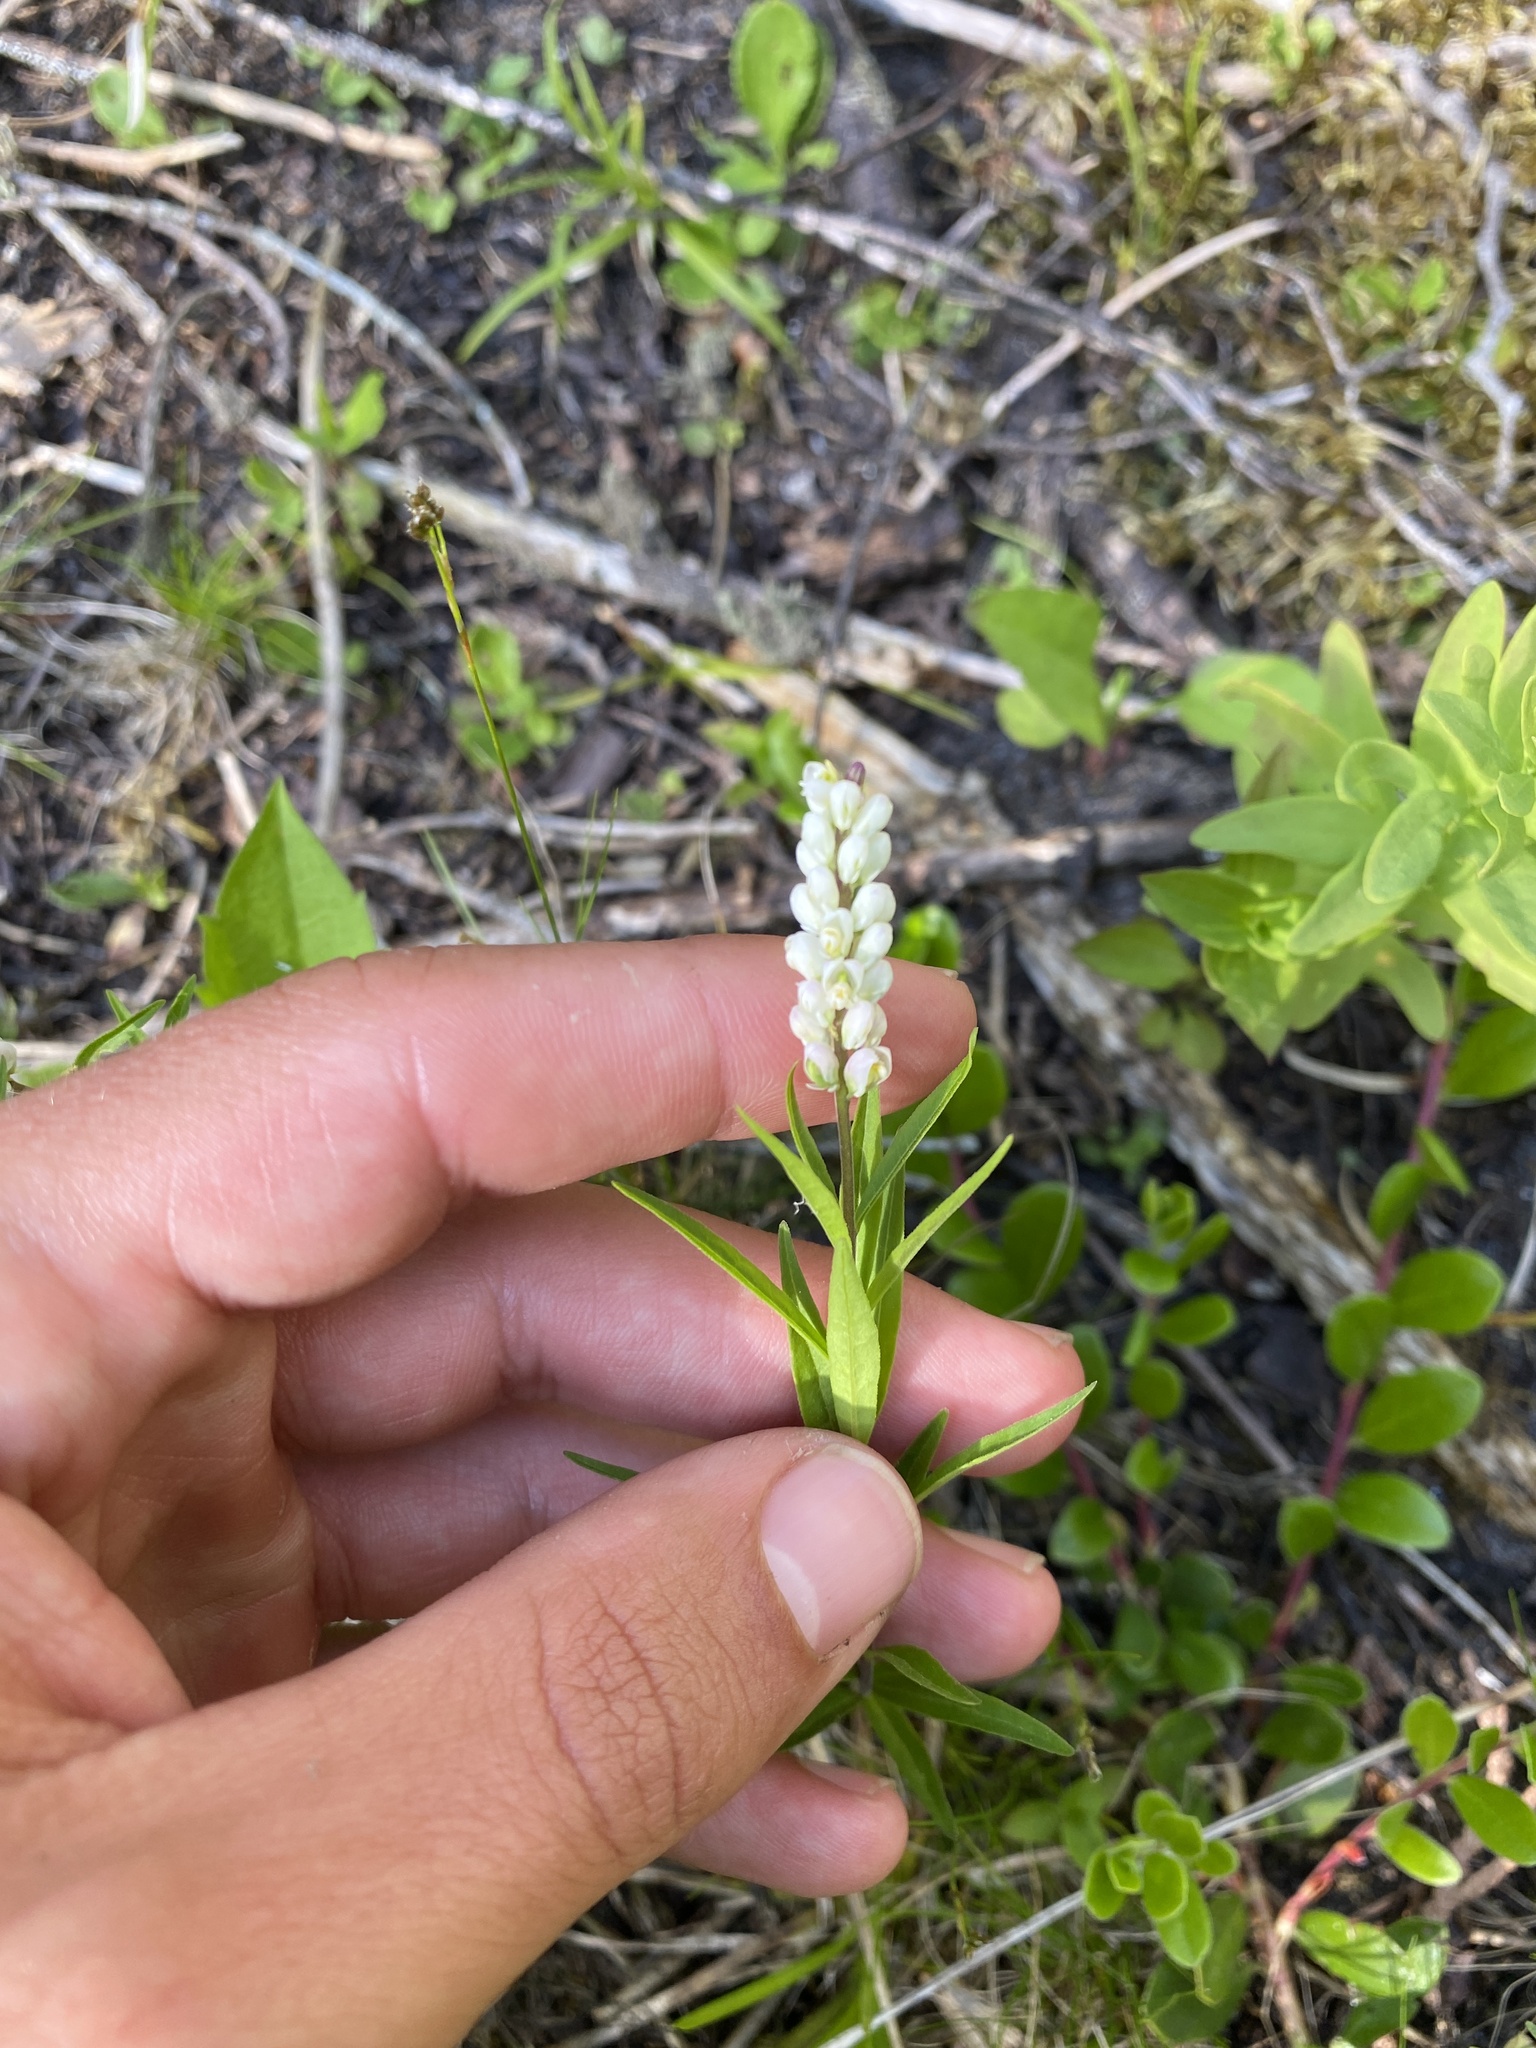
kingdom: Plantae
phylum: Tracheophyta
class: Magnoliopsida
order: Fabales
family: Polygalaceae
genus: Polygala
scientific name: Polygala senega
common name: Seneca snakeroot
